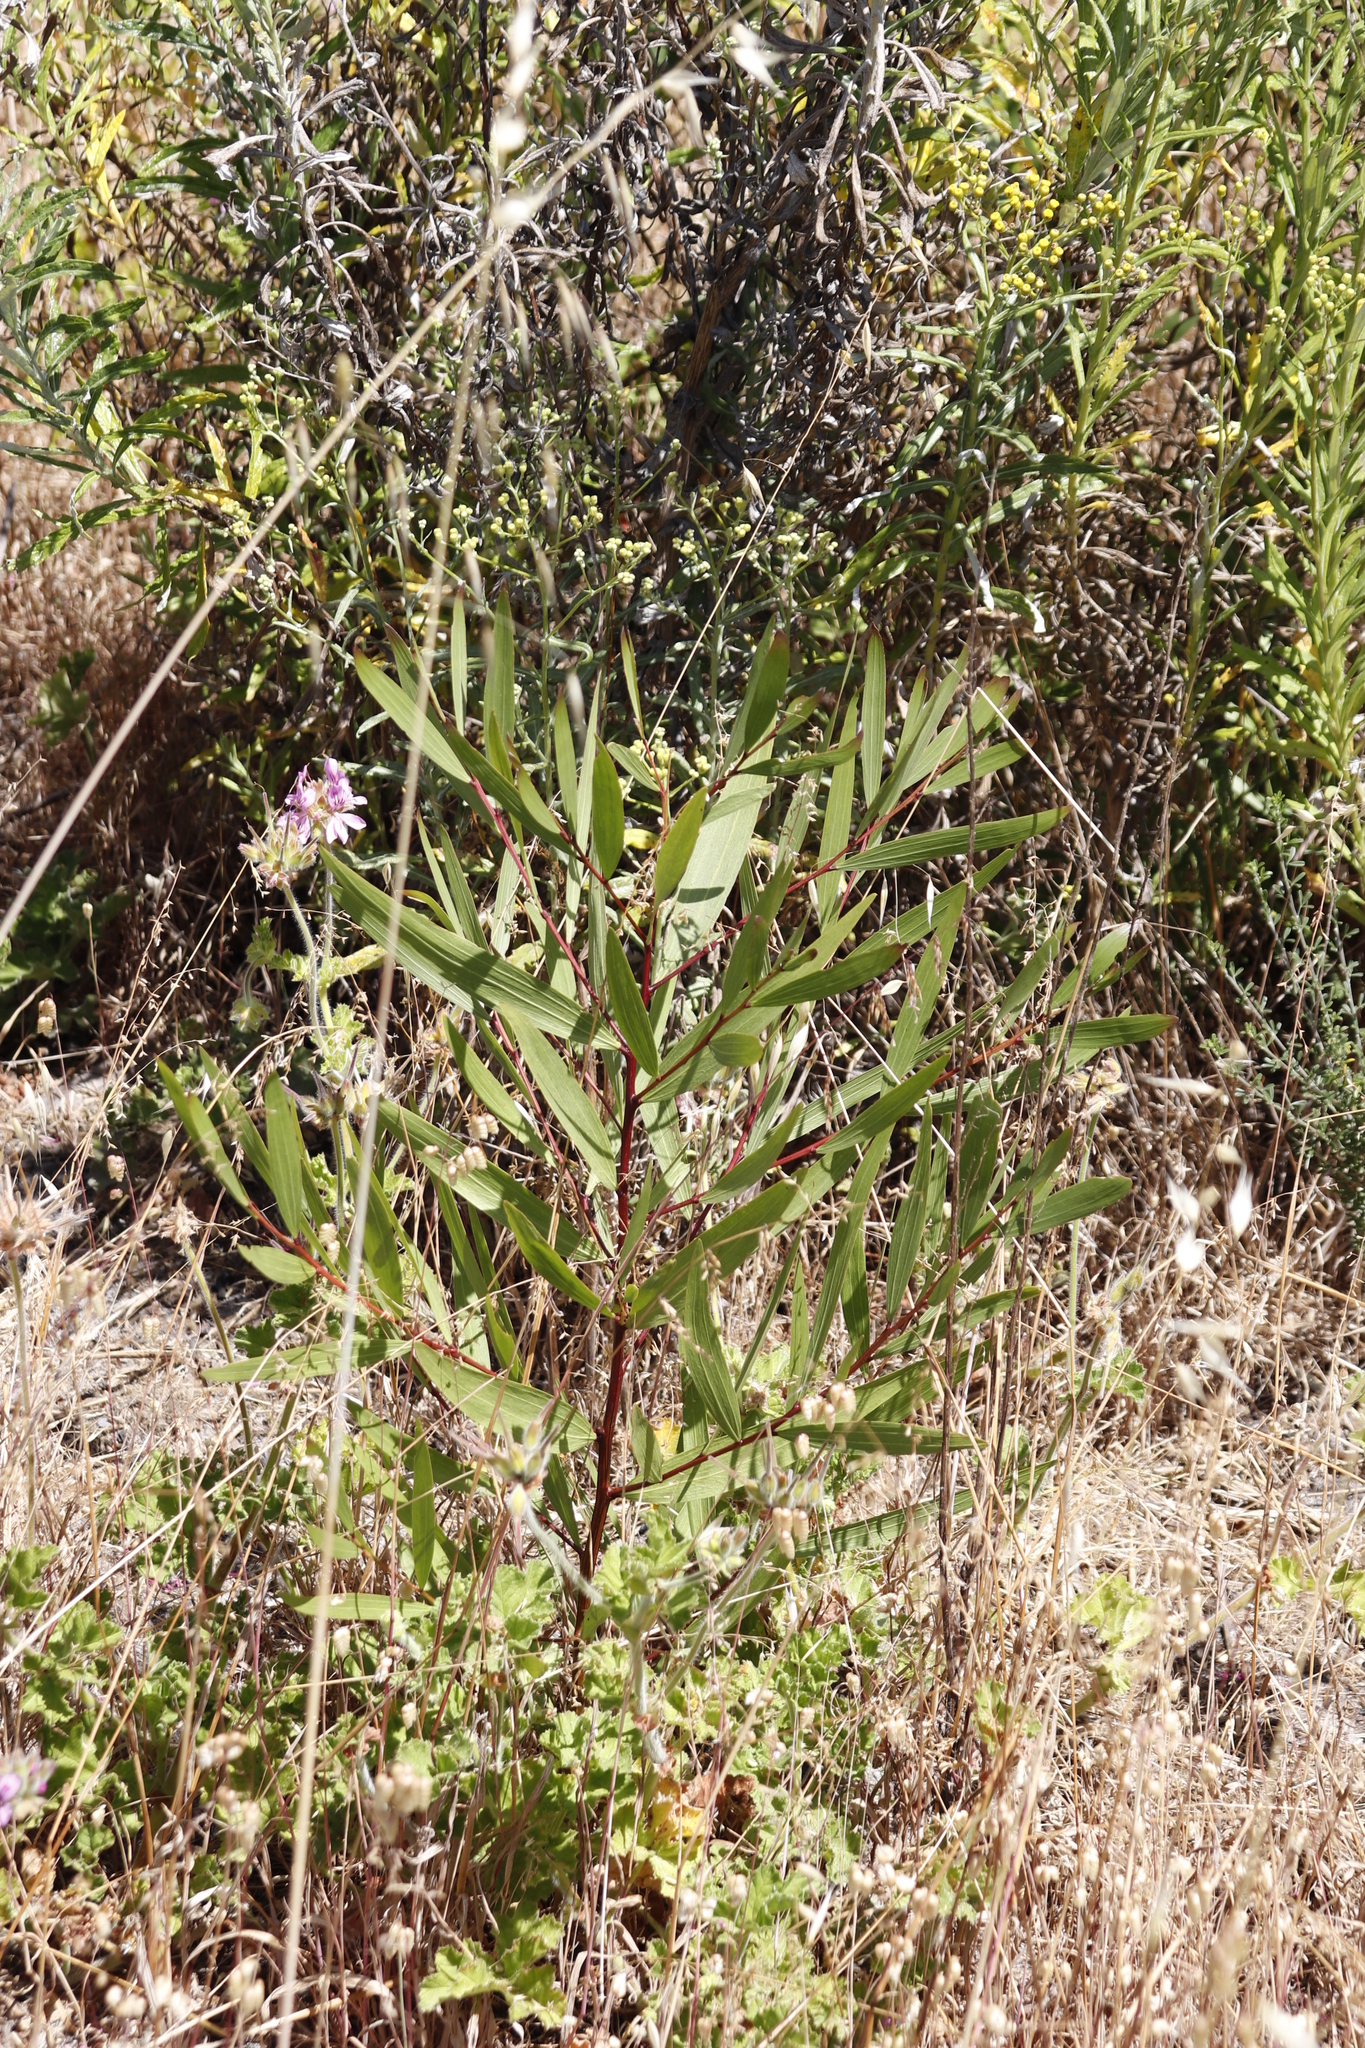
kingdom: Plantae
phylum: Tracheophyta
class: Magnoliopsida
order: Fabales
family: Fabaceae
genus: Acacia
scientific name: Acacia longifolia
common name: Sydney golden wattle
